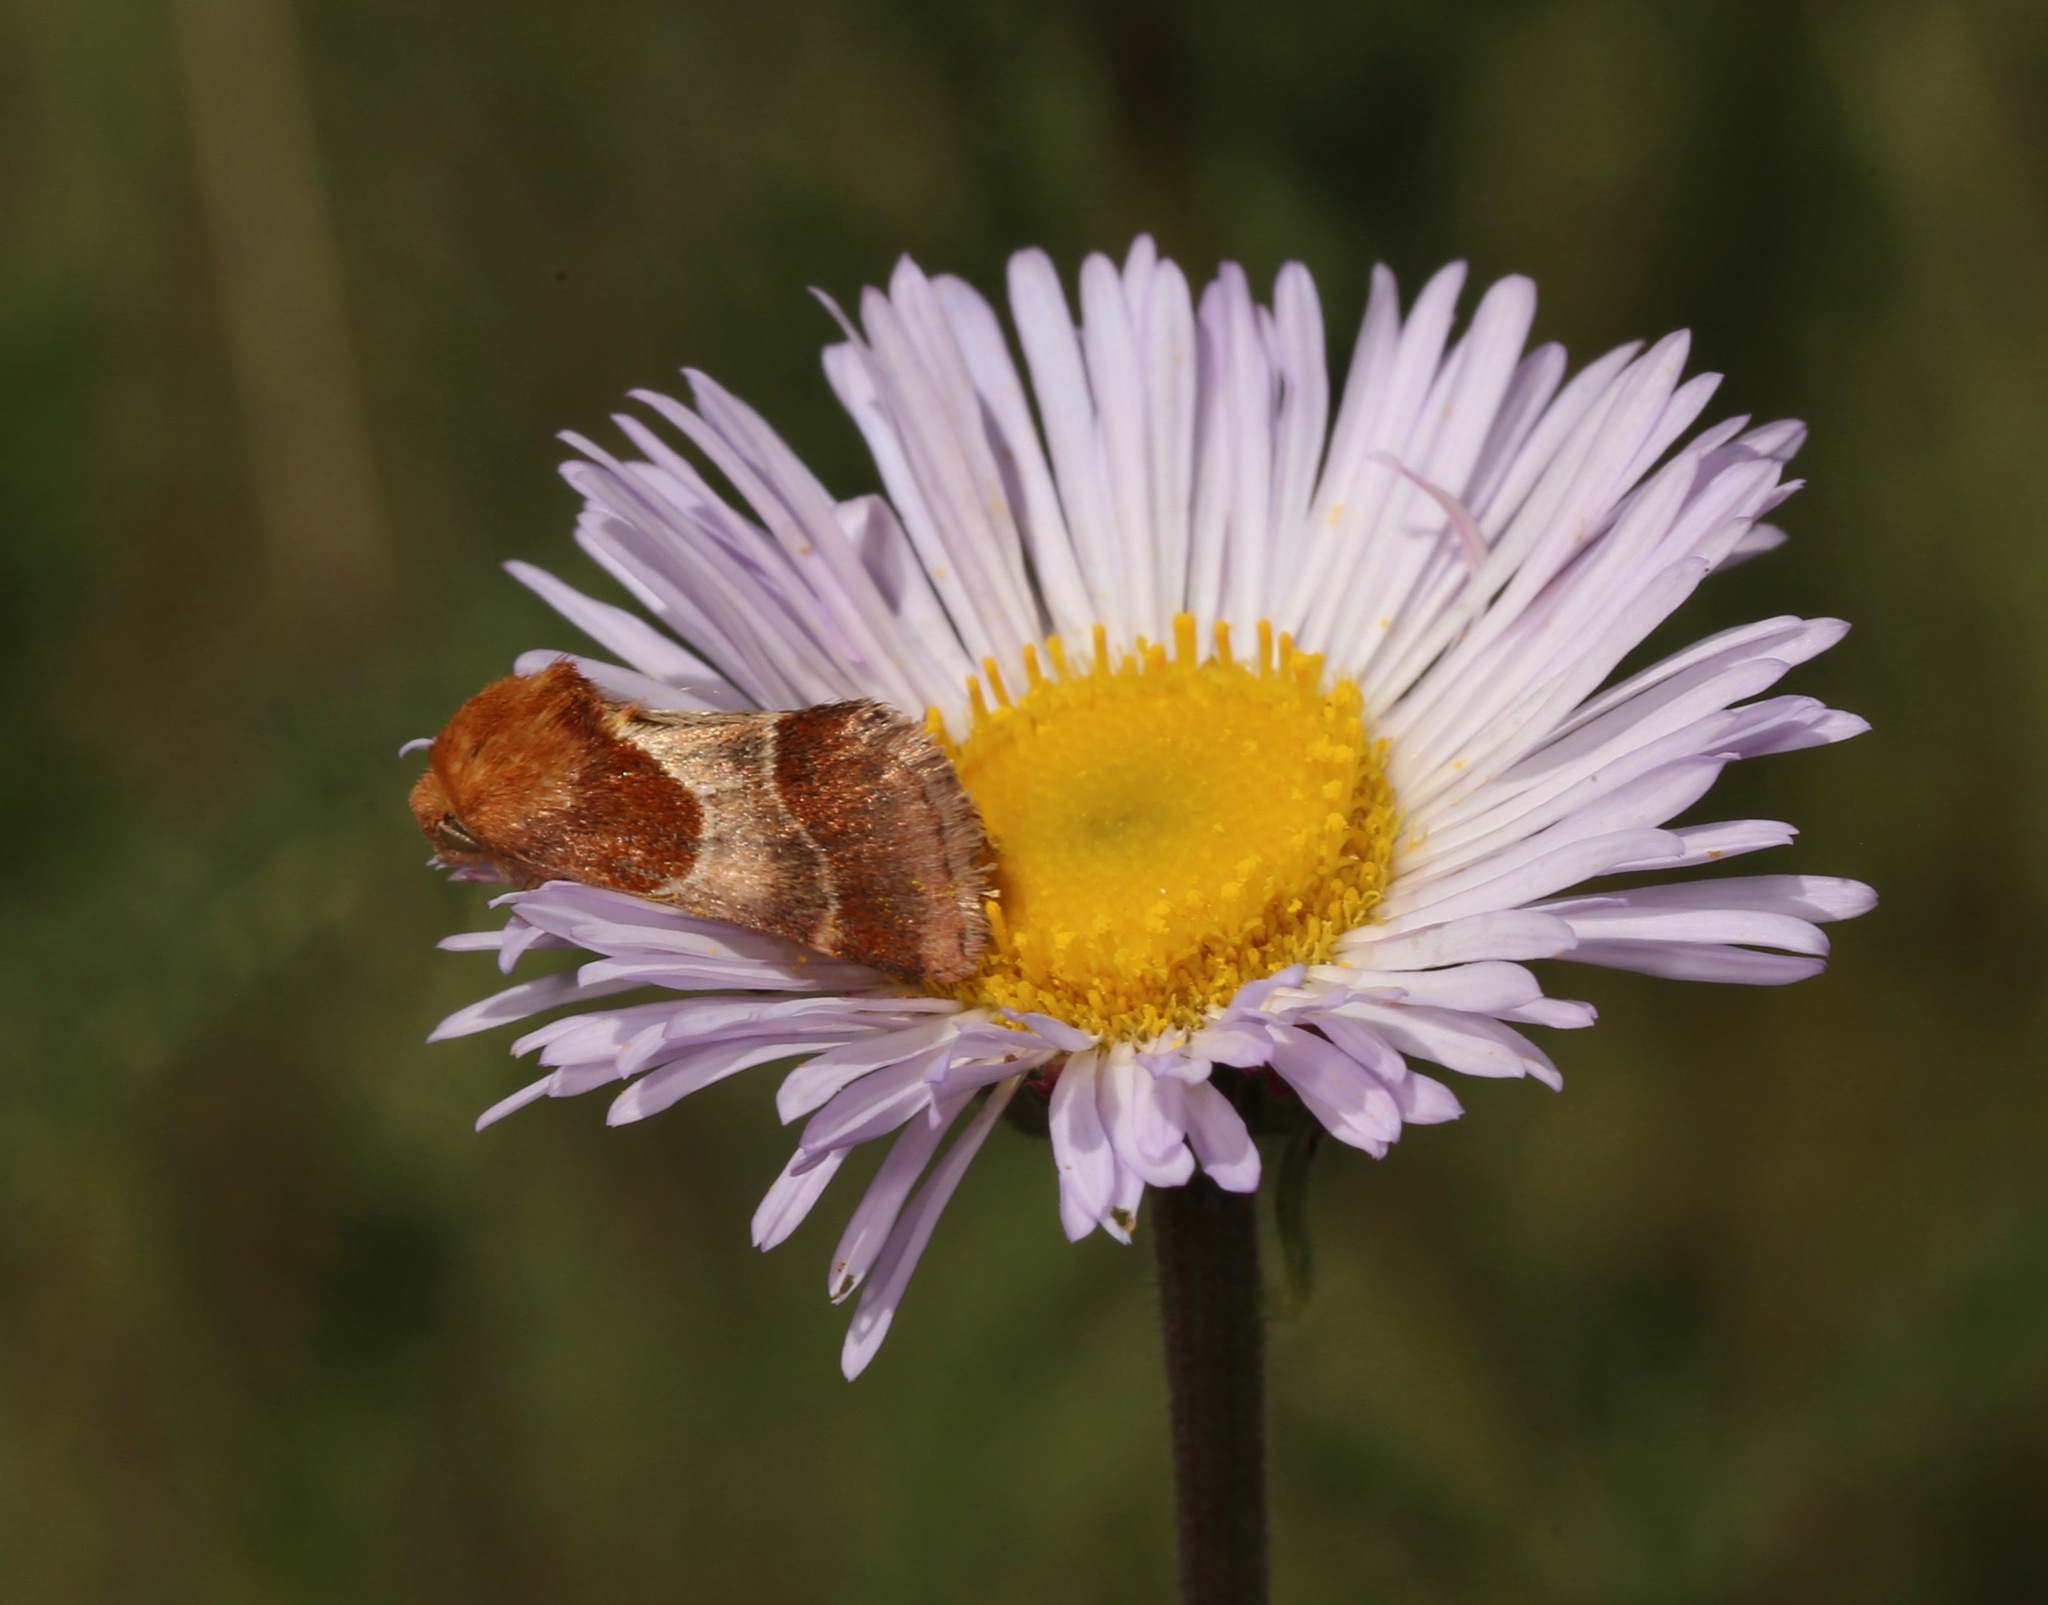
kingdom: Animalia
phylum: Arthropoda
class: Insecta
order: Lepidoptera
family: Noctuidae
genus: Schinia
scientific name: Schinia arcigera
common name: Arcigera flower moth
